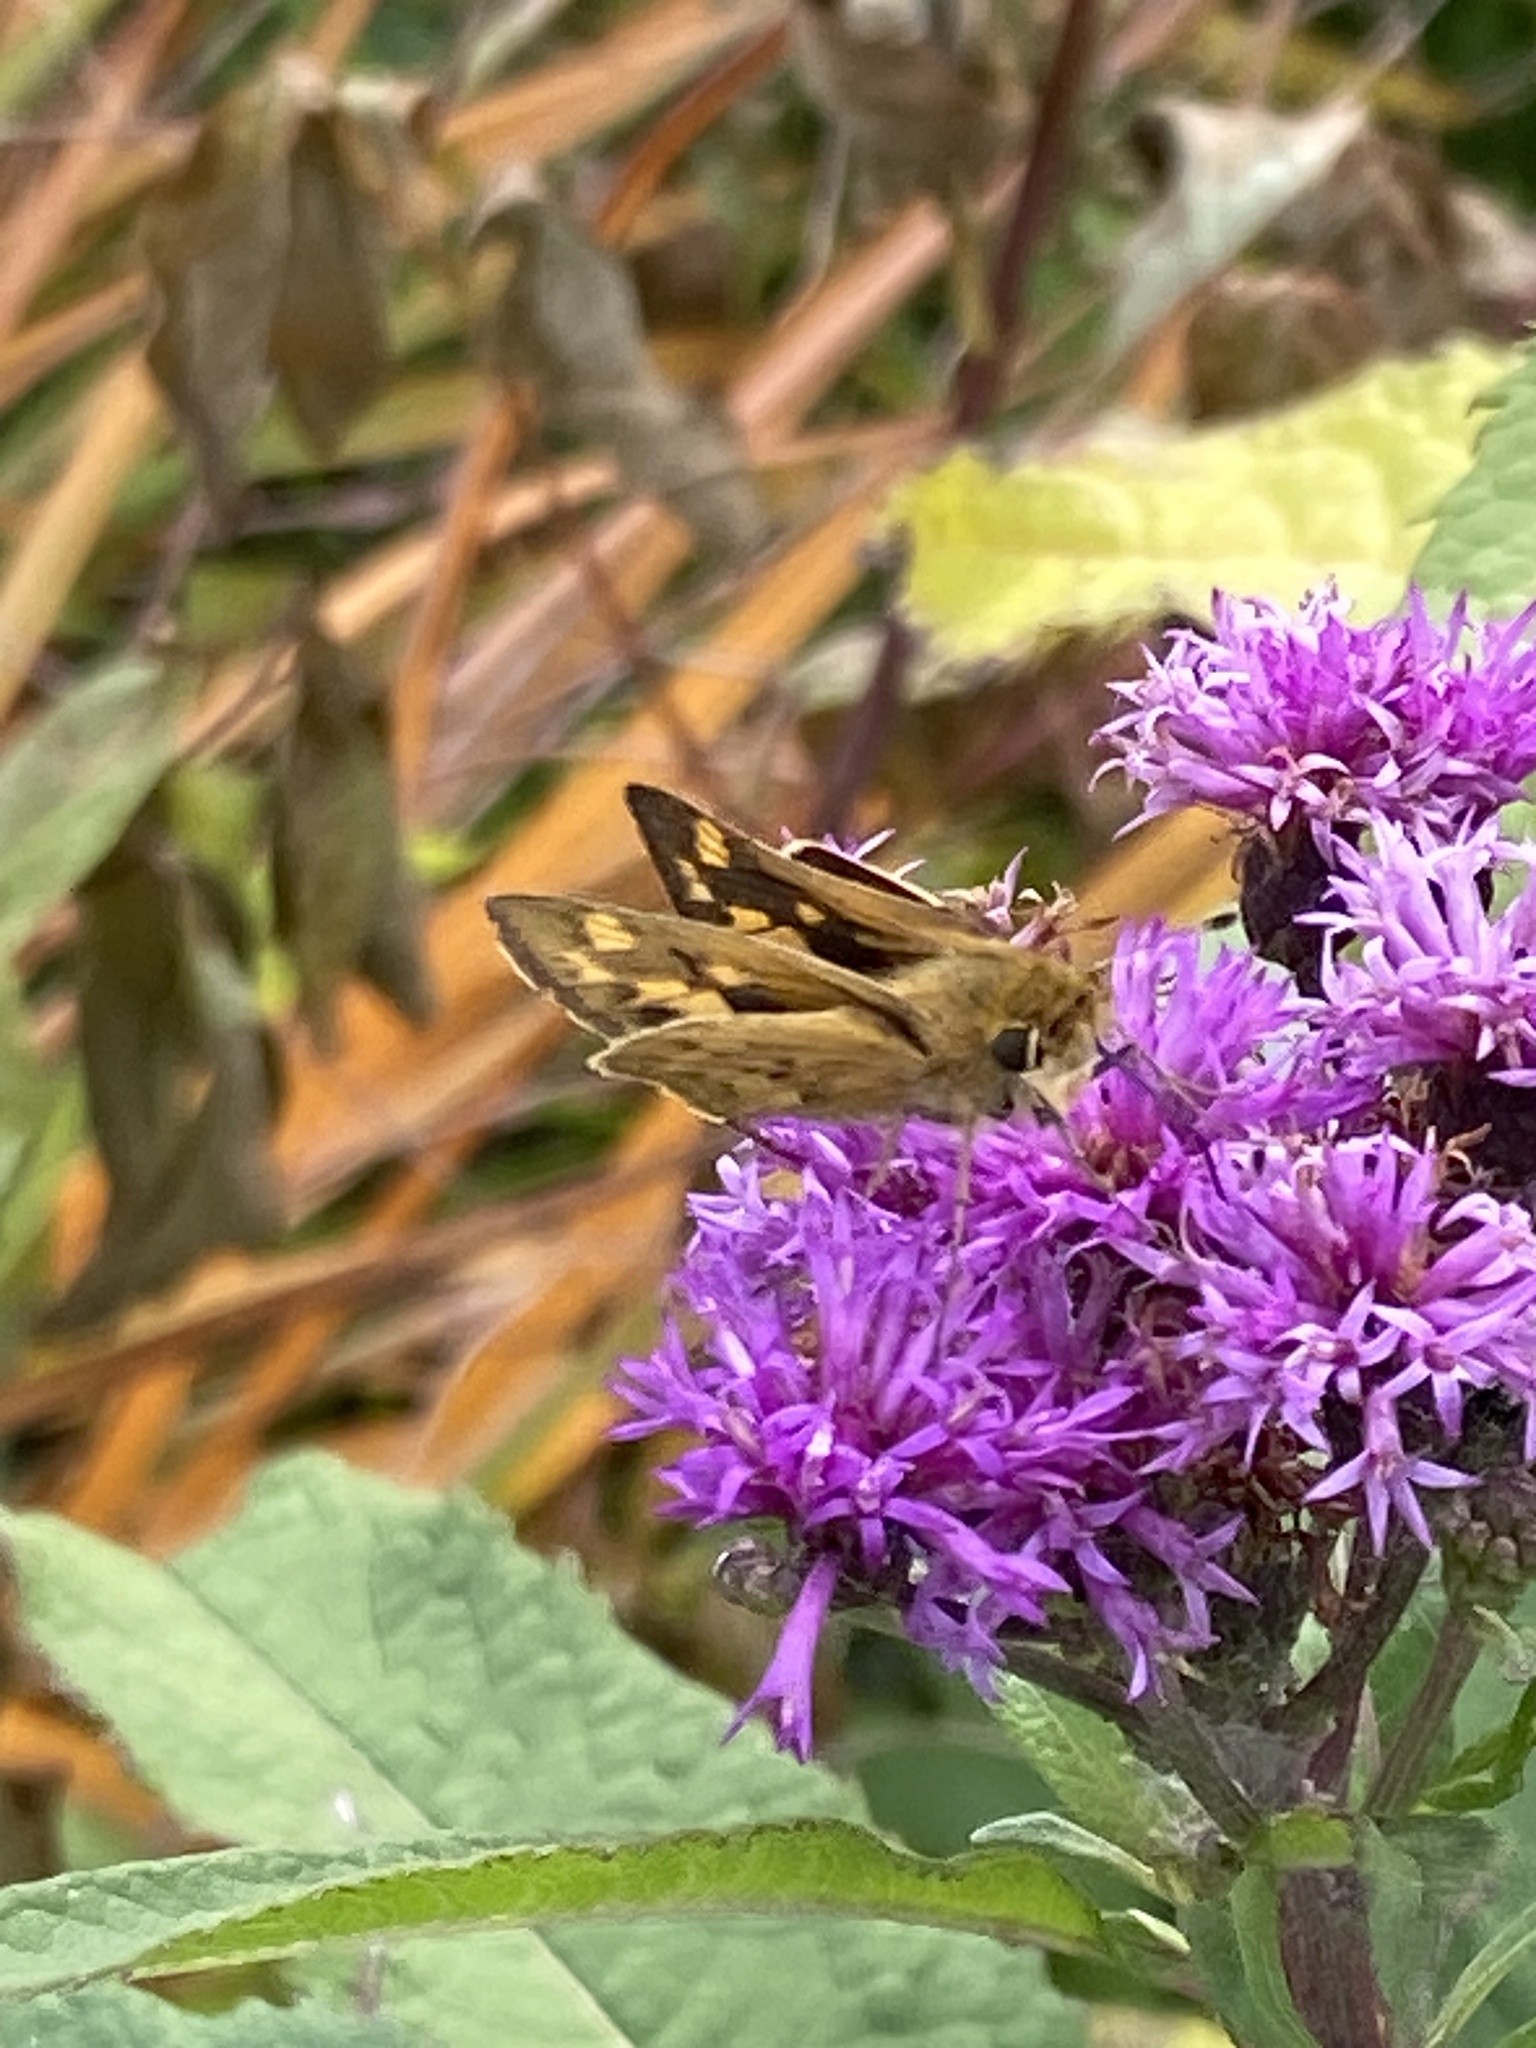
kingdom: Animalia
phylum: Arthropoda
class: Insecta
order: Lepidoptera
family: Hesperiidae
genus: Hylephila
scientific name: Hylephila phyleus
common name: Fiery skipper
